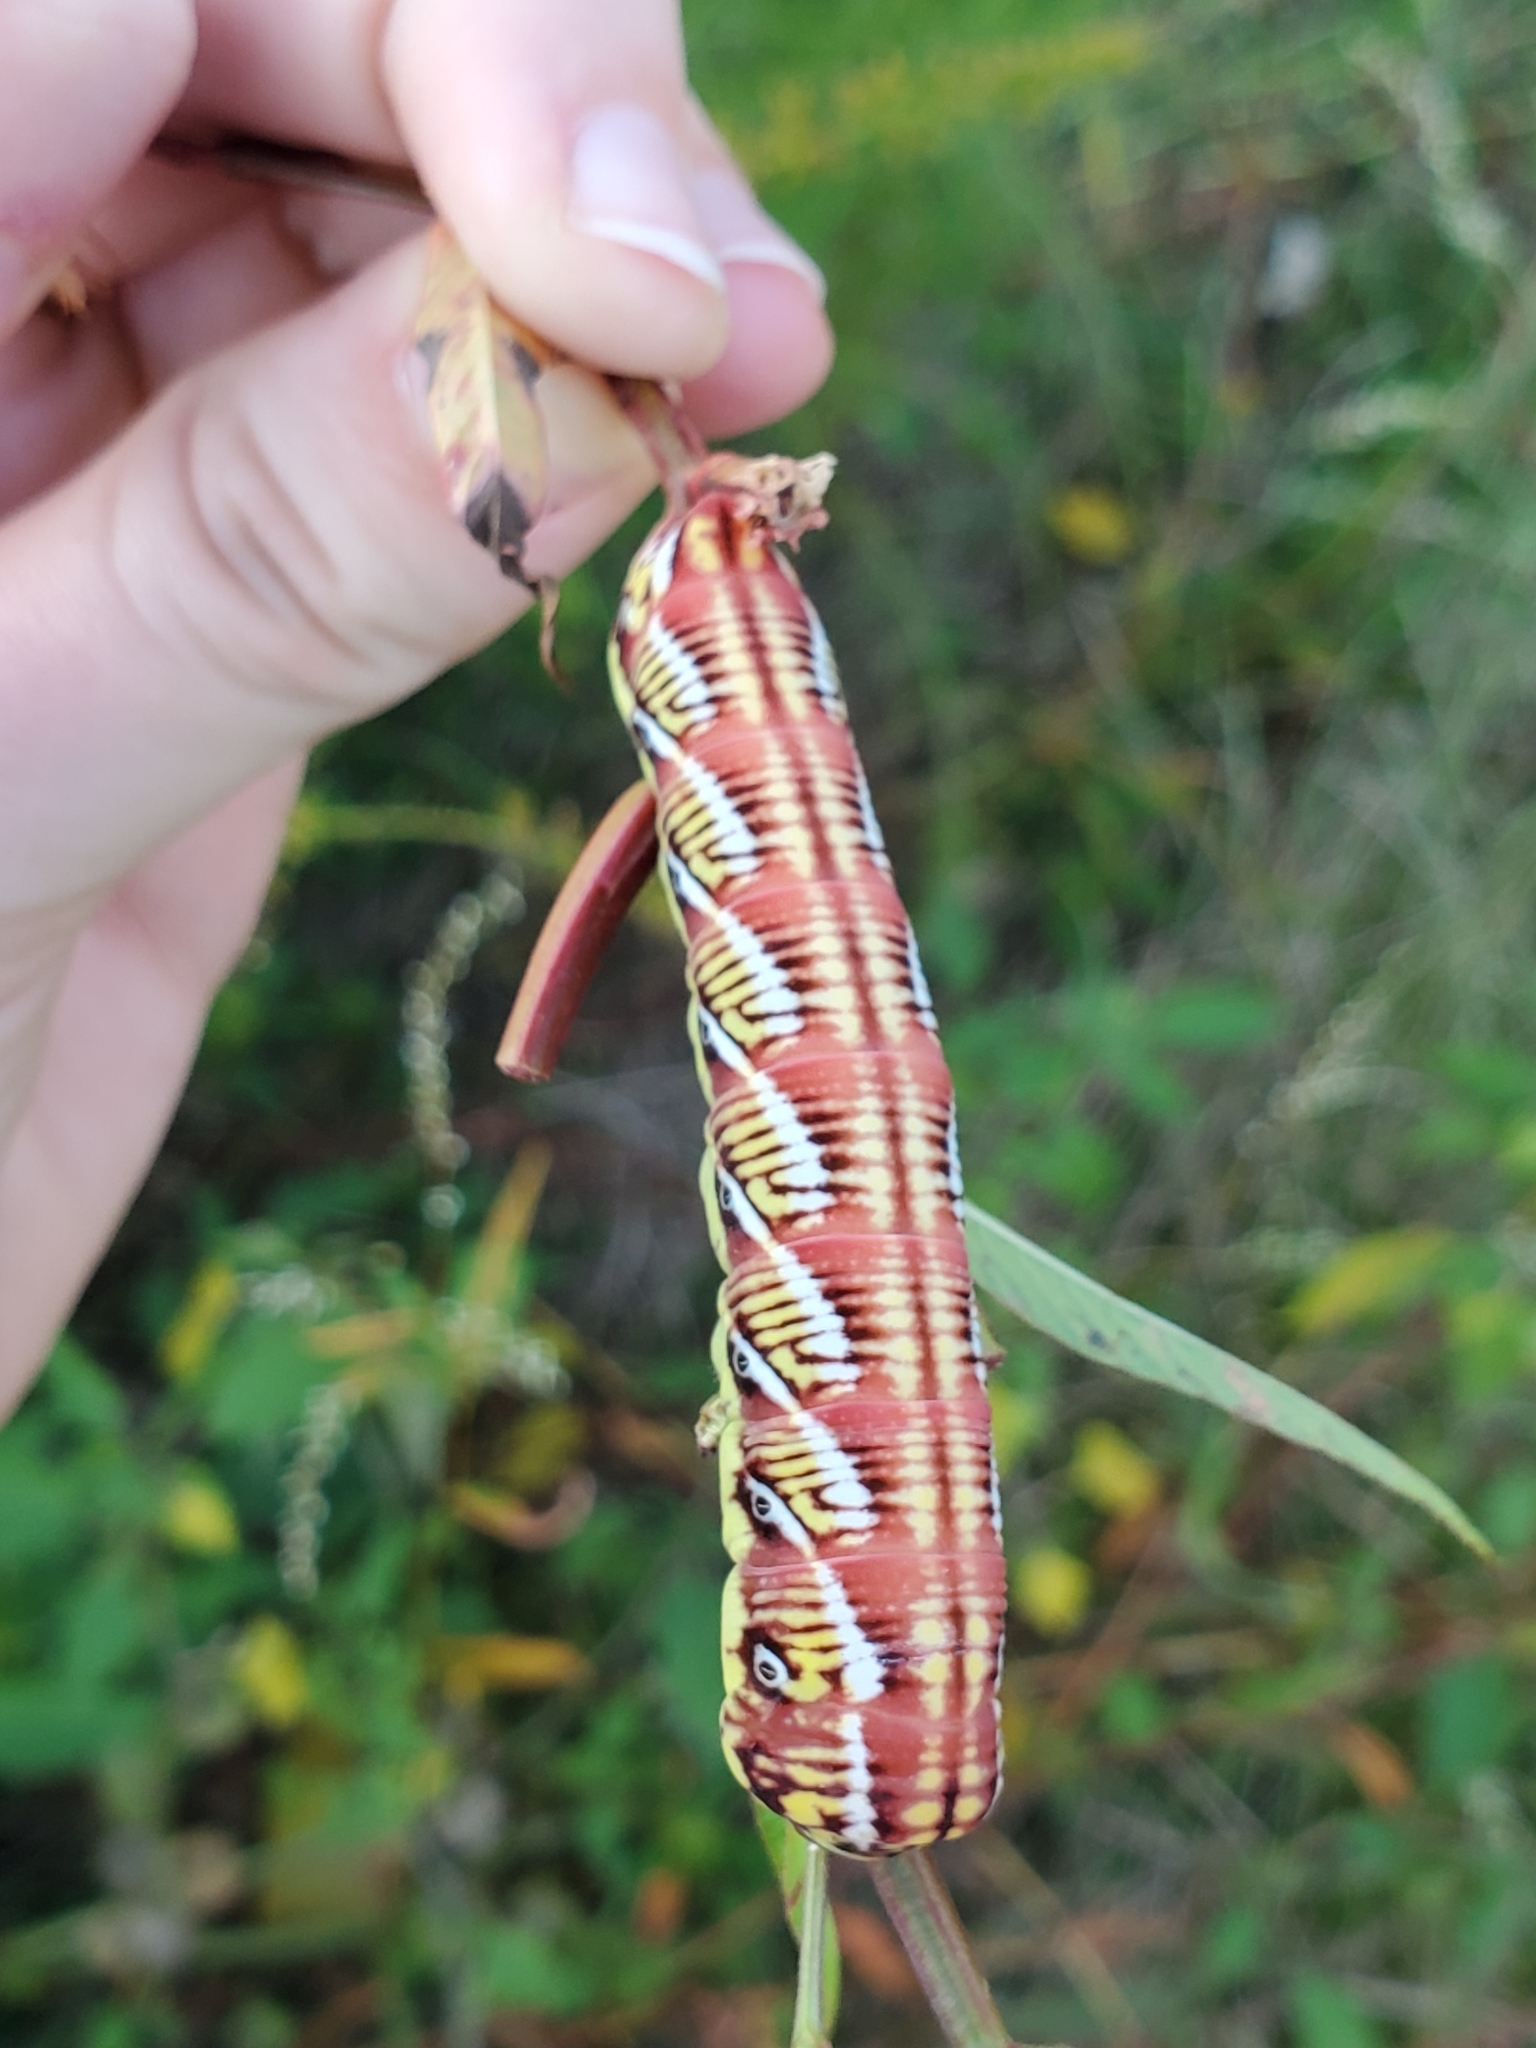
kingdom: Animalia
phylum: Arthropoda
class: Insecta
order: Lepidoptera
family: Sphingidae
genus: Eumorpha
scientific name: Eumorpha fasciatus
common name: Banded sphinx
